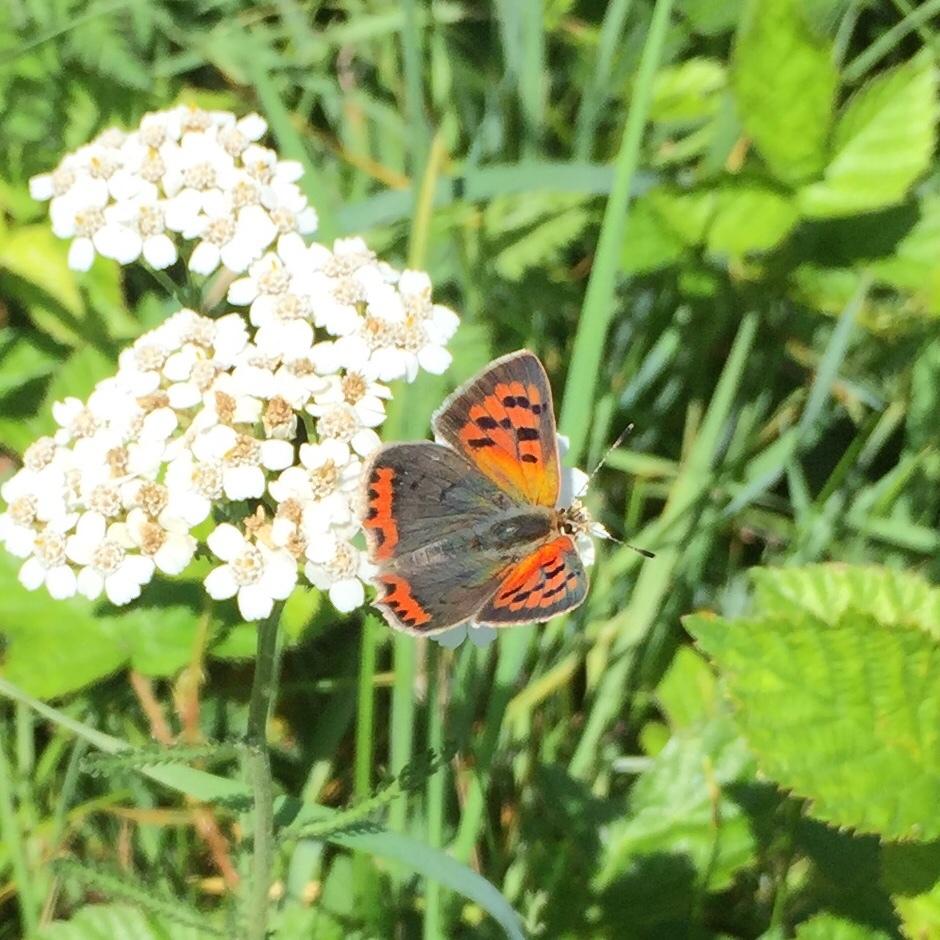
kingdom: Animalia
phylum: Arthropoda
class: Insecta
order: Lepidoptera
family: Lycaenidae
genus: Lycaena
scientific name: Lycaena phlaeas
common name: Small copper
